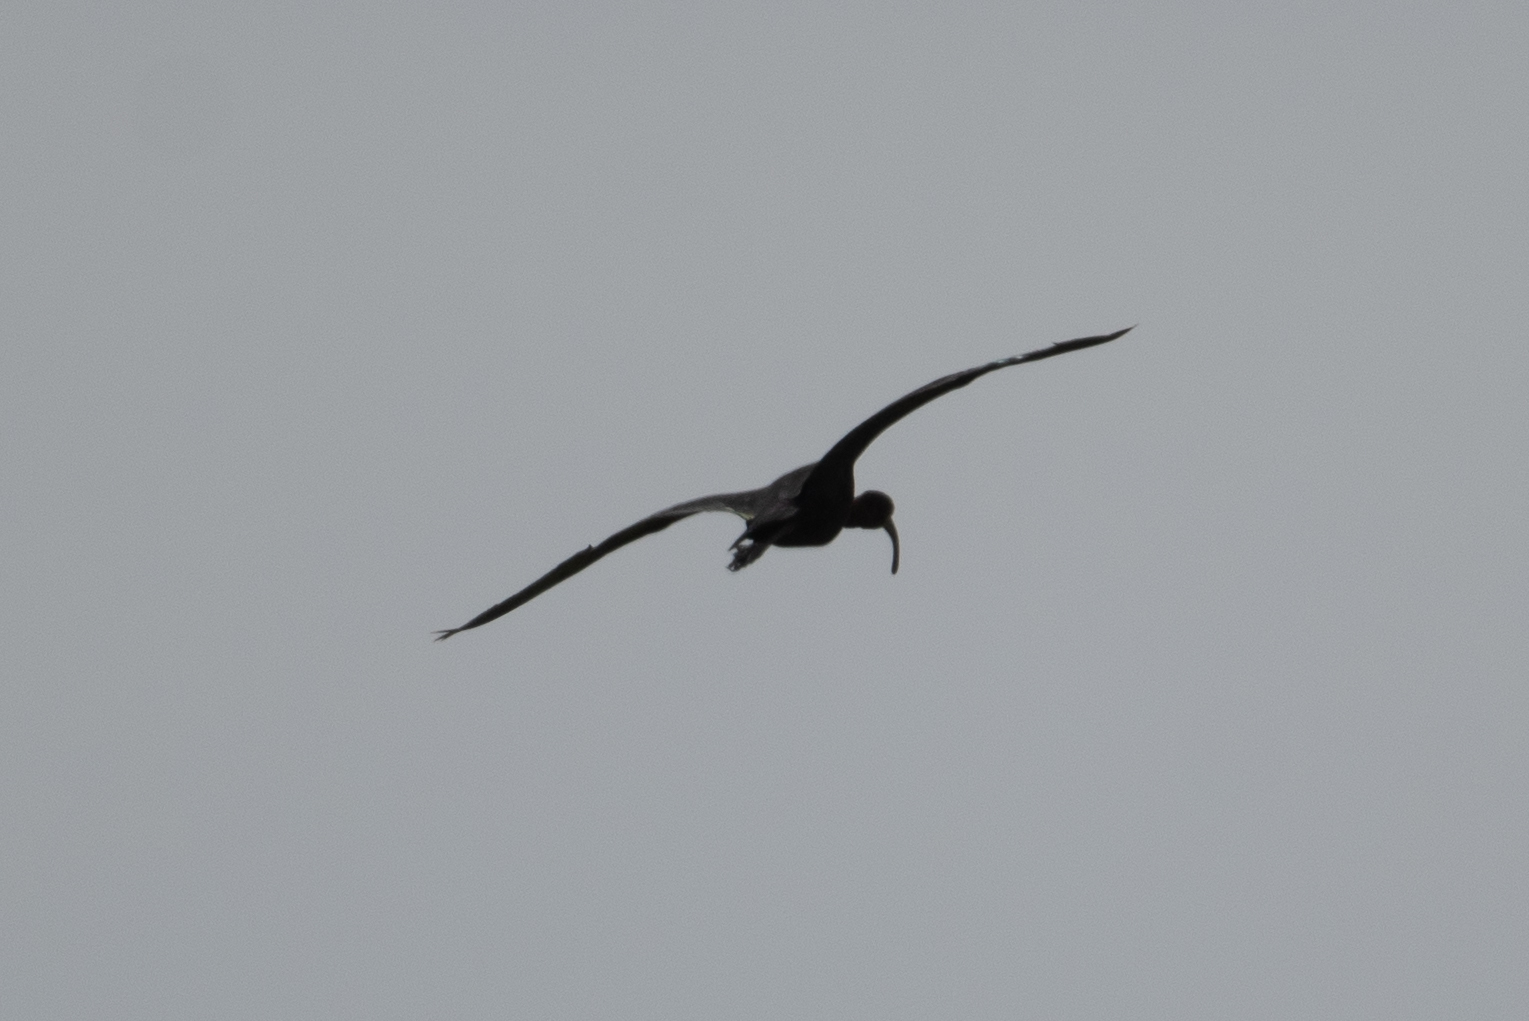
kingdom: Animalia
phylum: Chordata
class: Aves
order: Pelecaniformes
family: Threskiornithidae
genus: Plegadis
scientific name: Plegadis chihi
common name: White-faced ibis
